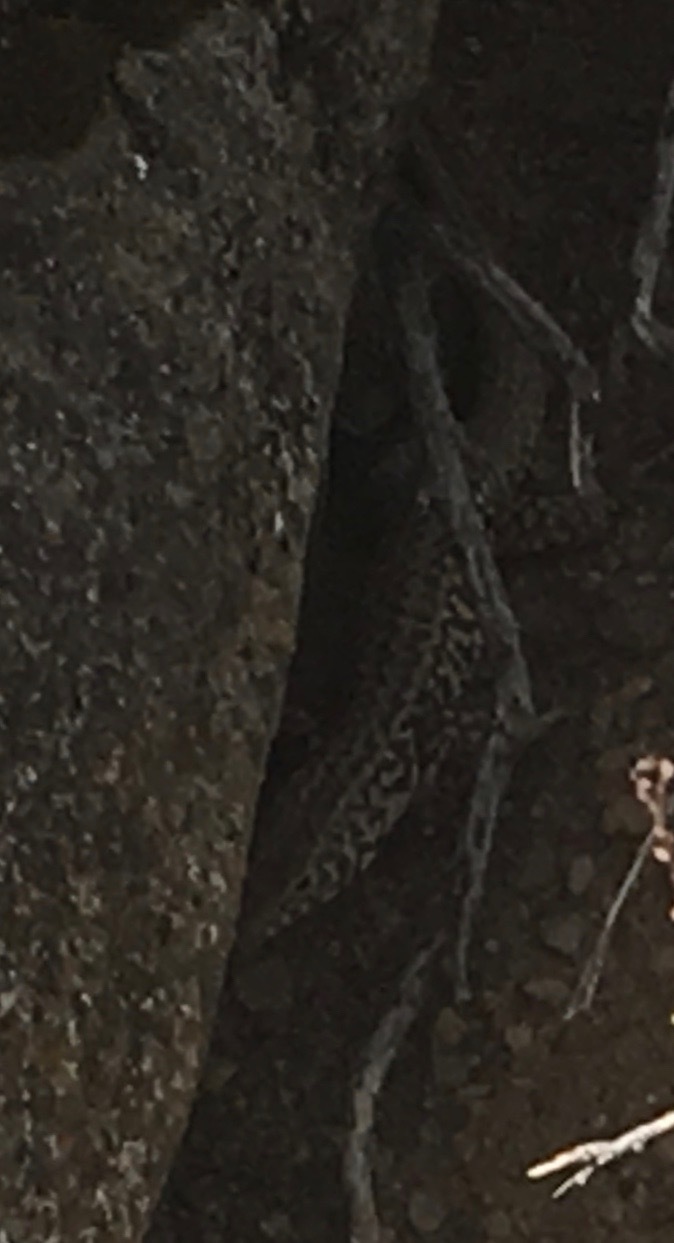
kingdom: Animalia
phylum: Chordata
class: Squamata
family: Teiidae
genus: Aspidoscelis
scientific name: Aspidoscelis tigris
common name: Tiger whiptail
